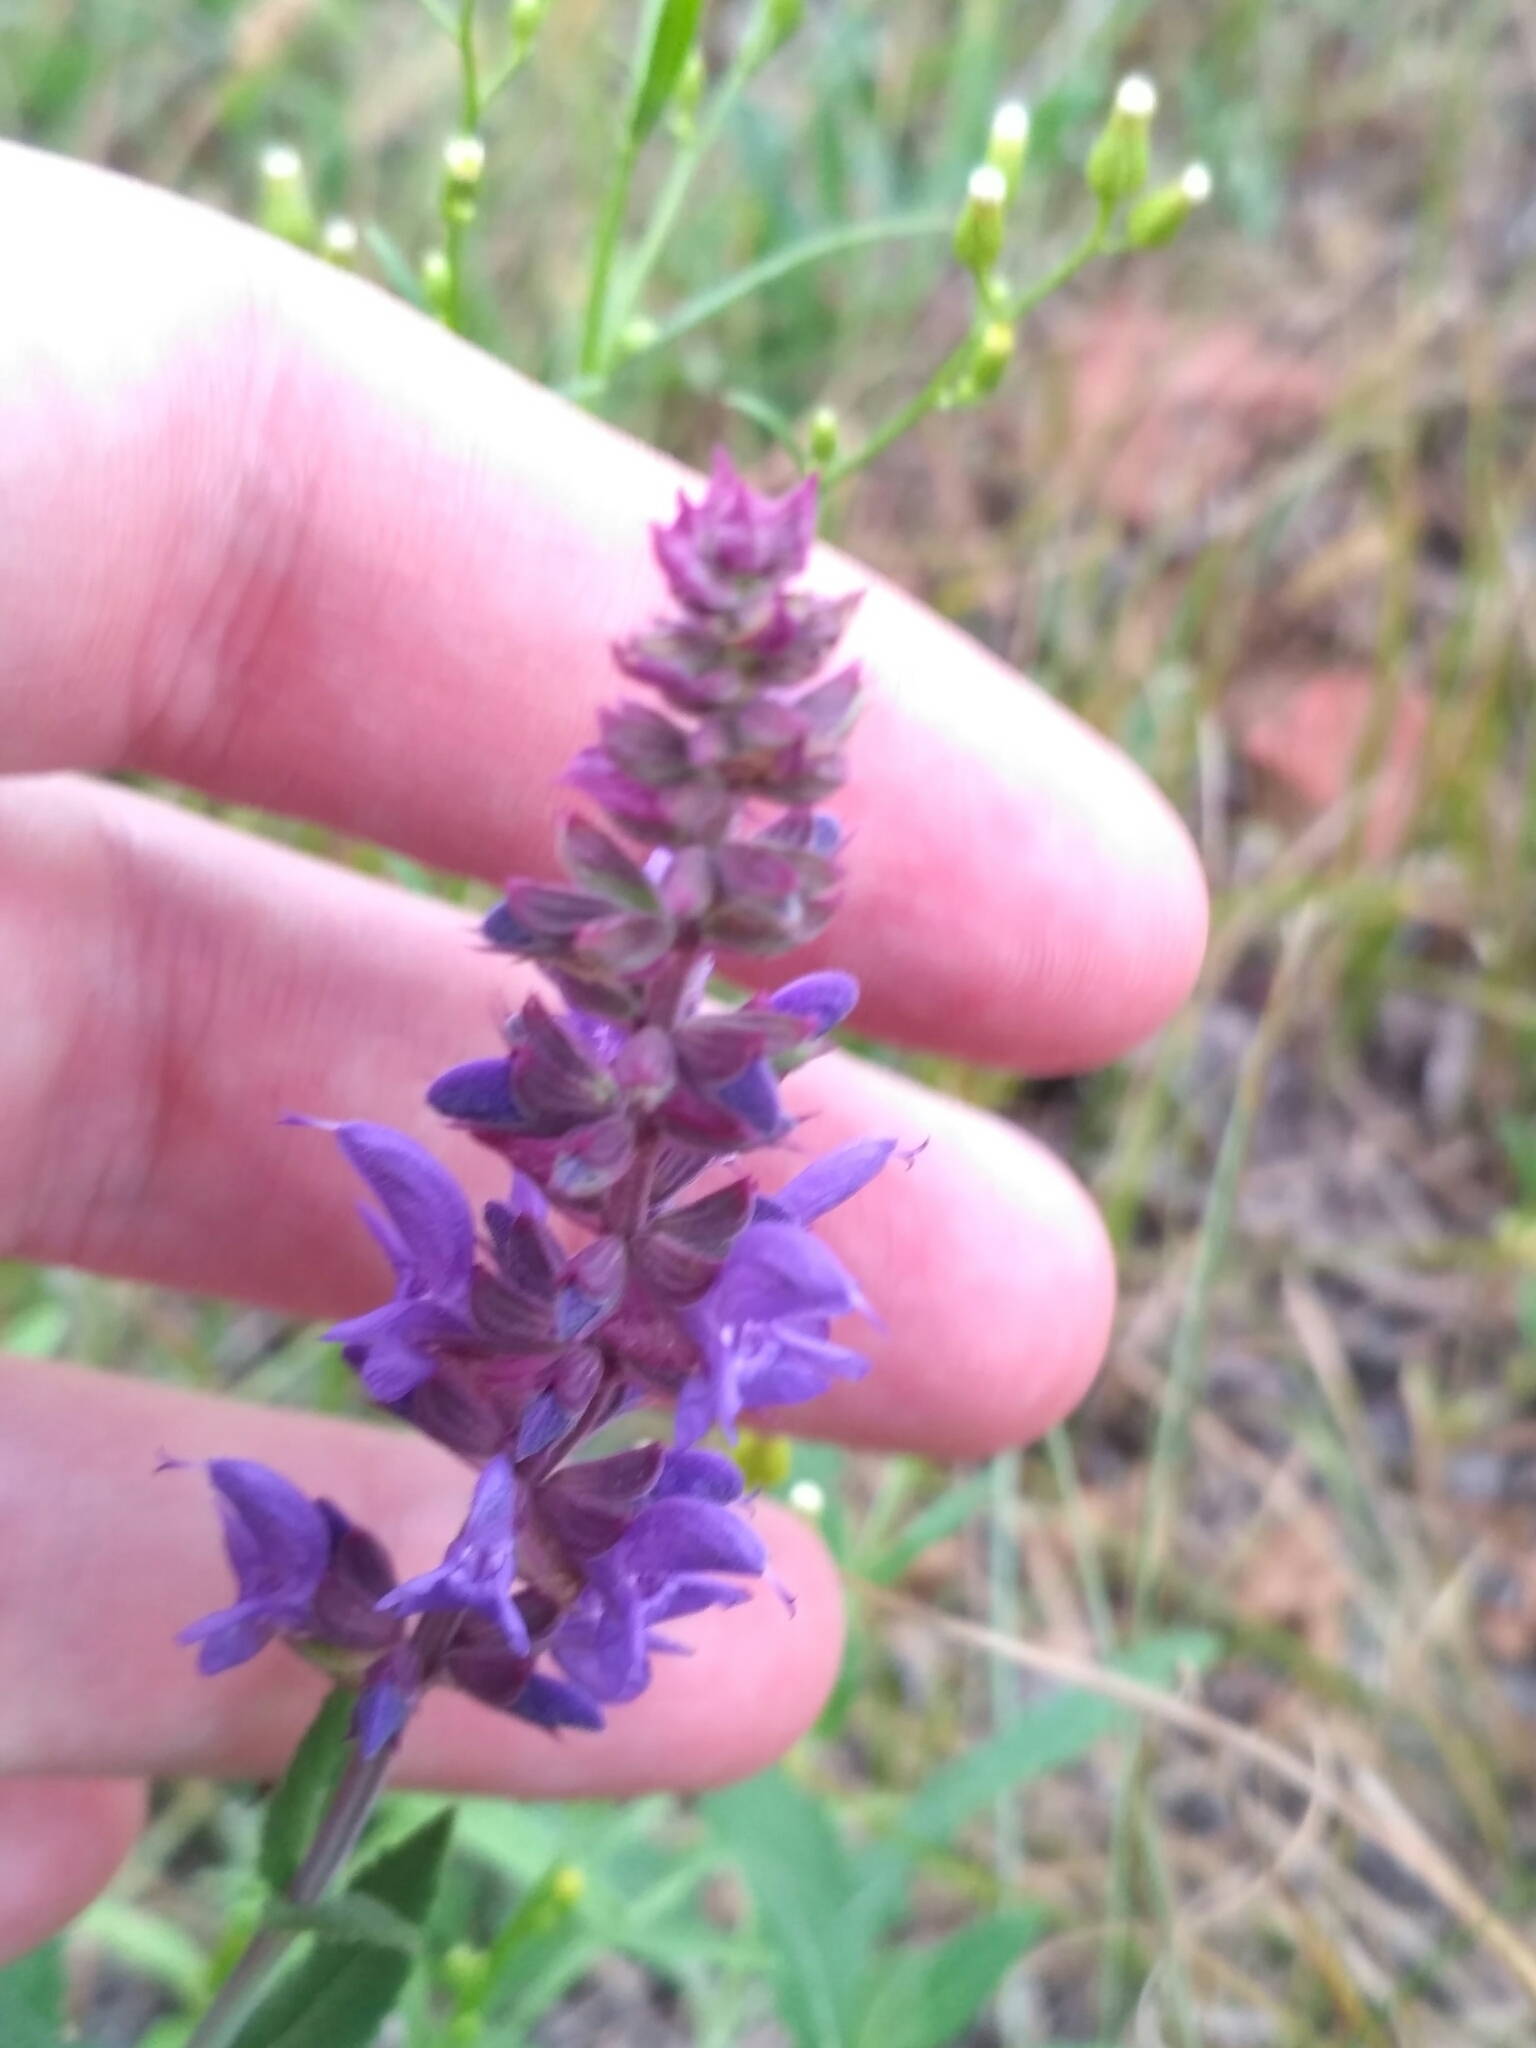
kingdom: Plantae
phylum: Tracheophyta
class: Magnoliopsida
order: Lamiales
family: Lamiaceae
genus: Salvia
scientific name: Salvia nemorosa
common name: Balkan clary
